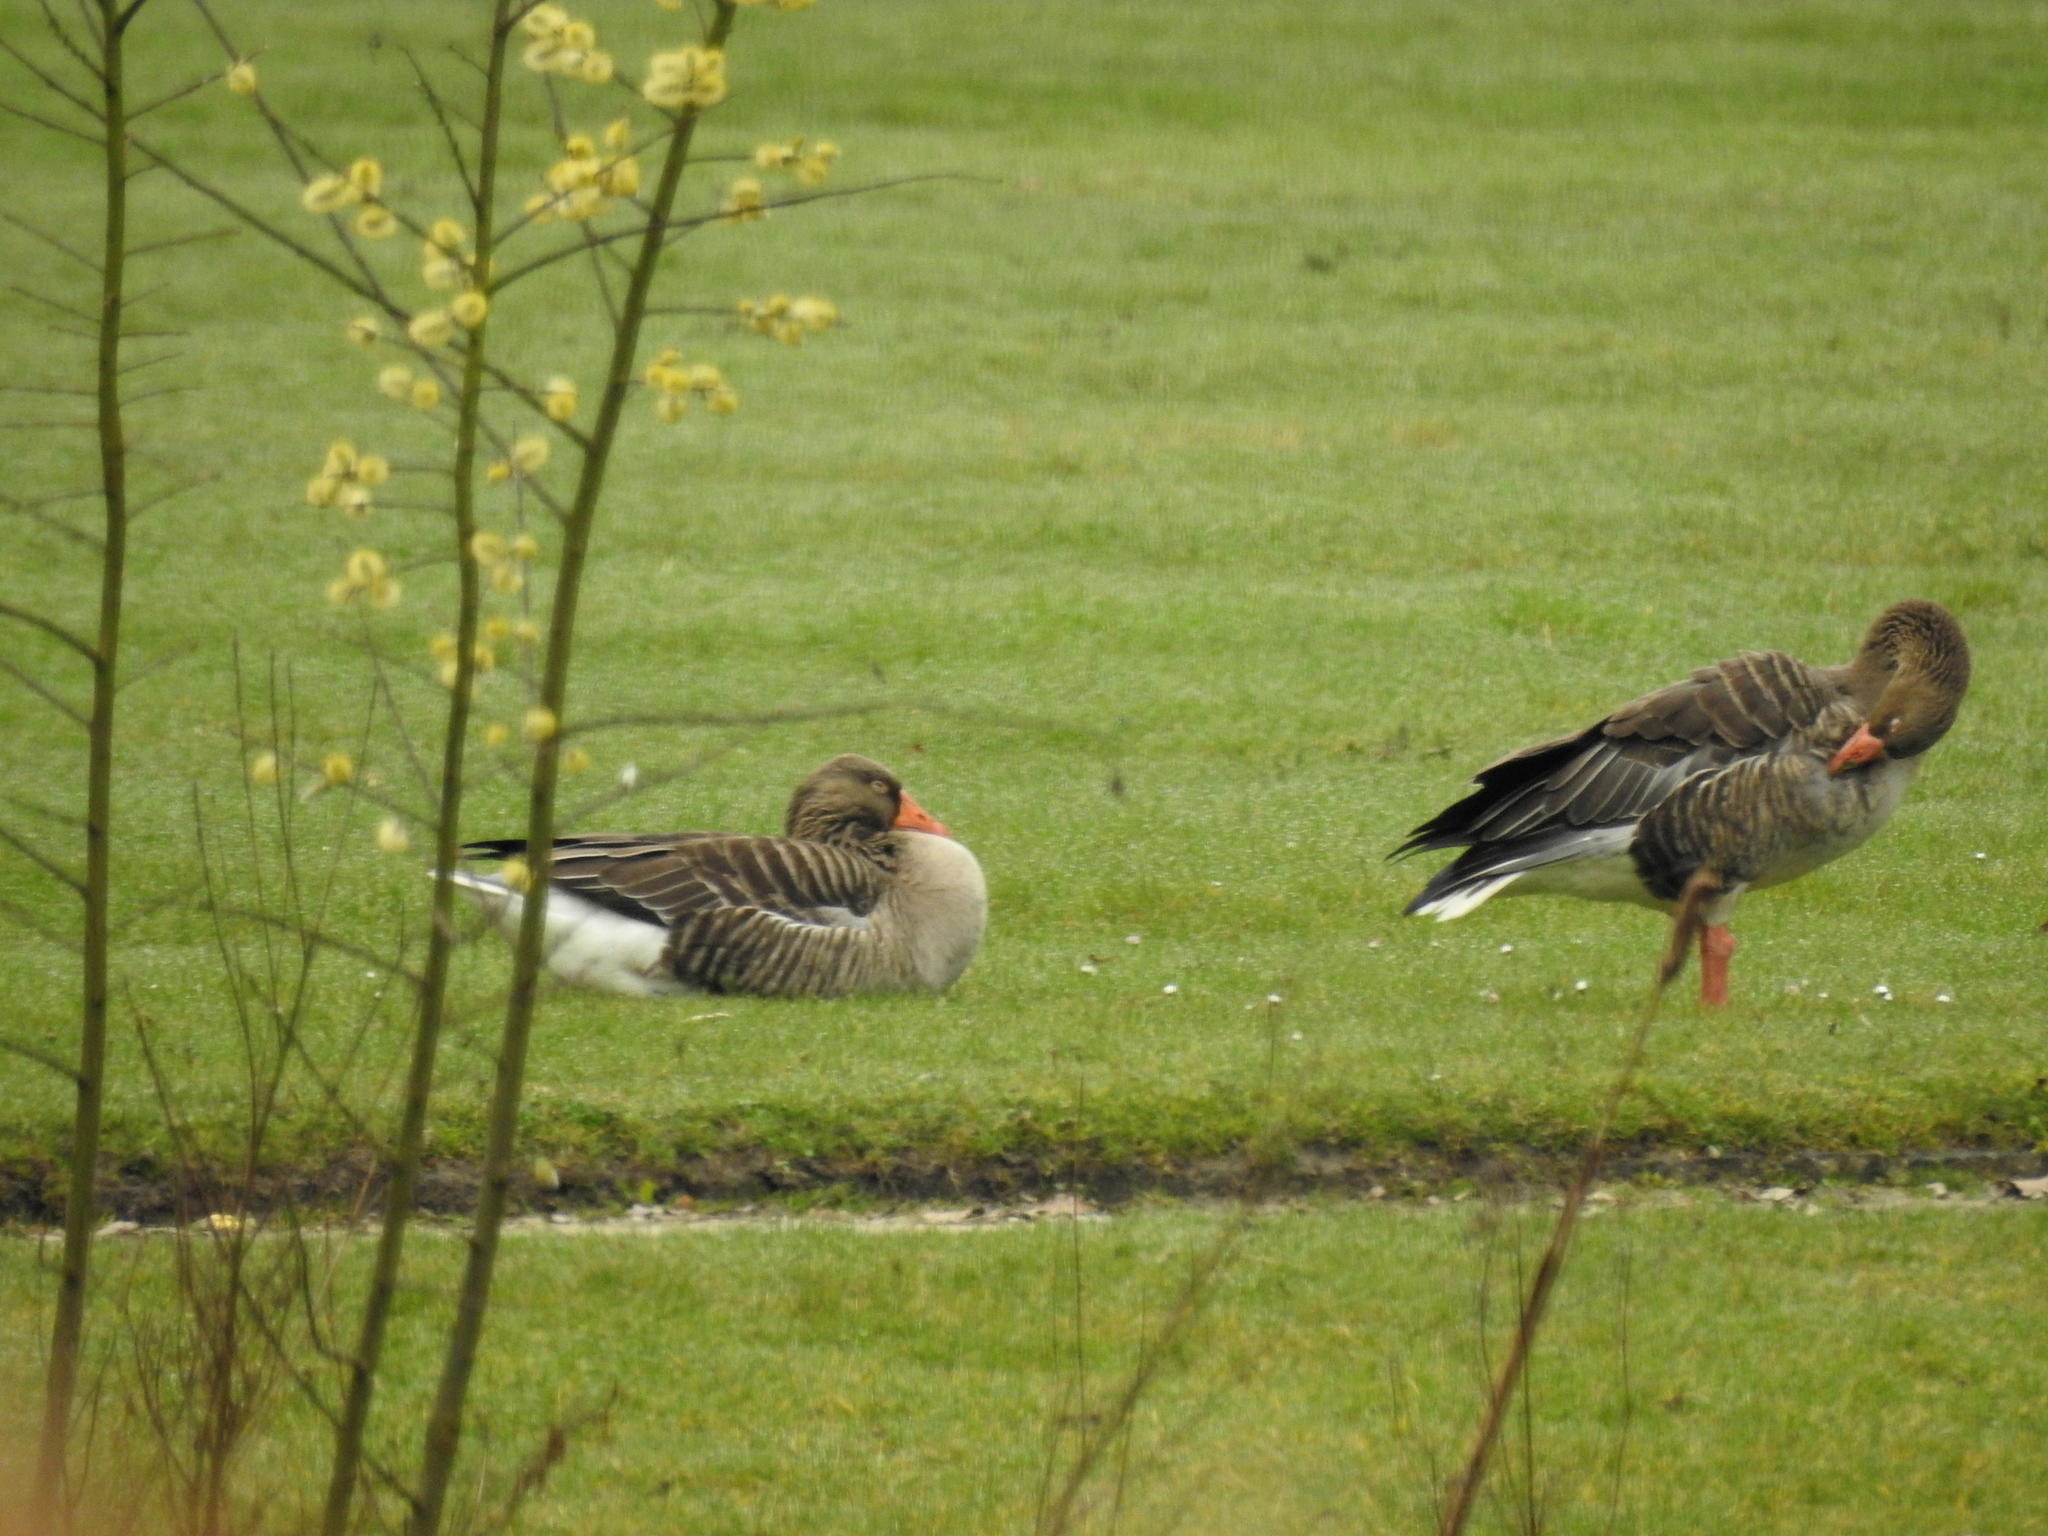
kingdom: Animalia
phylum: Chordata
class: Aves
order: Anseriformes
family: Anatidae
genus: Anser
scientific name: Anser anser
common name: Greylag goose
